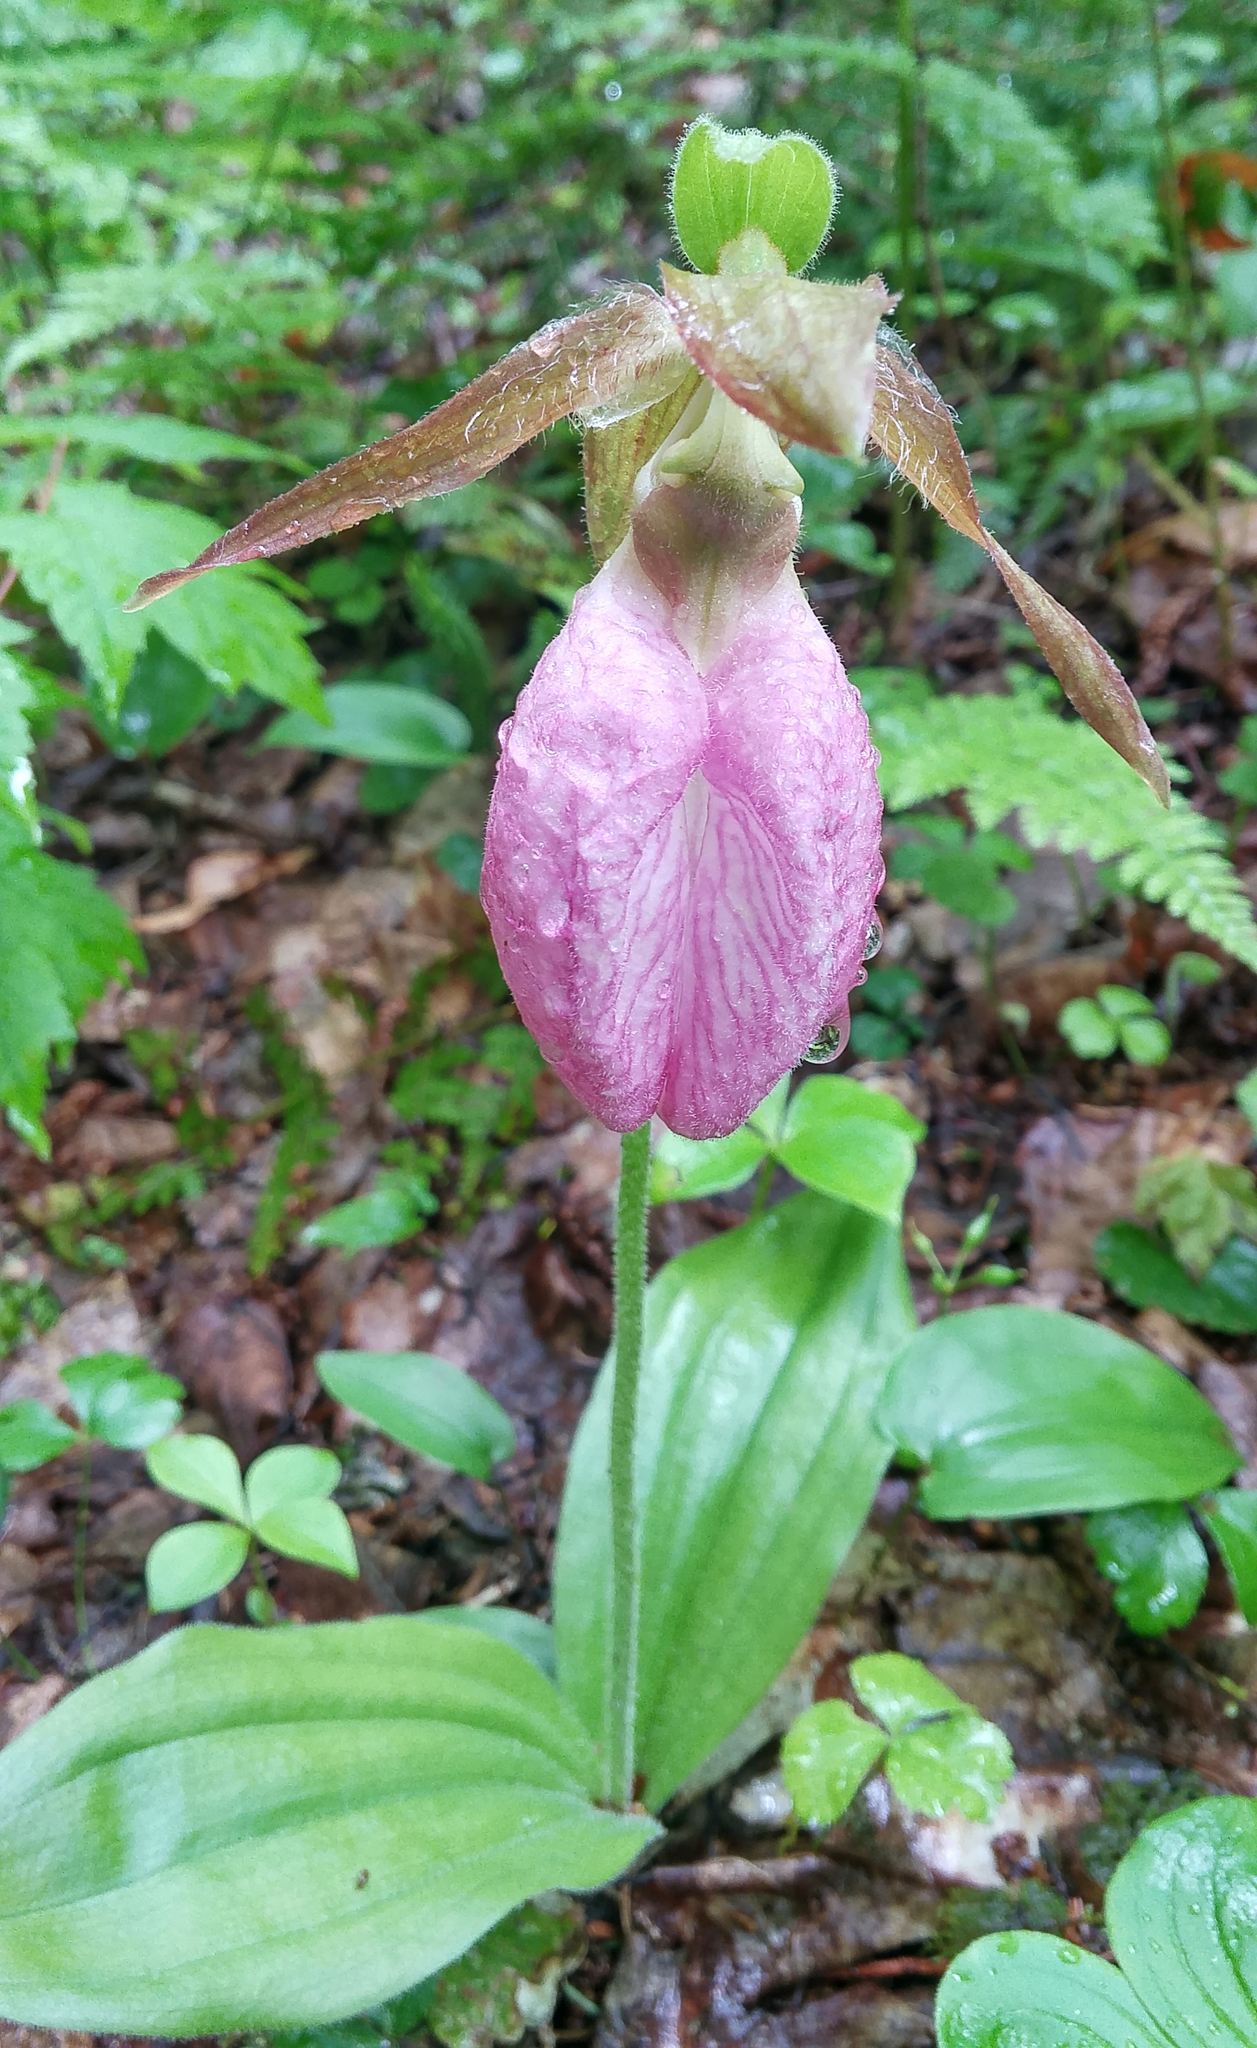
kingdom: Plantae
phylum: Tracheophyta
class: Liliopsida
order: Asparagales
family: Orchidaceae
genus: Cypripedium
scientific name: Cypripedium acaule
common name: Pink lady's-slipper
